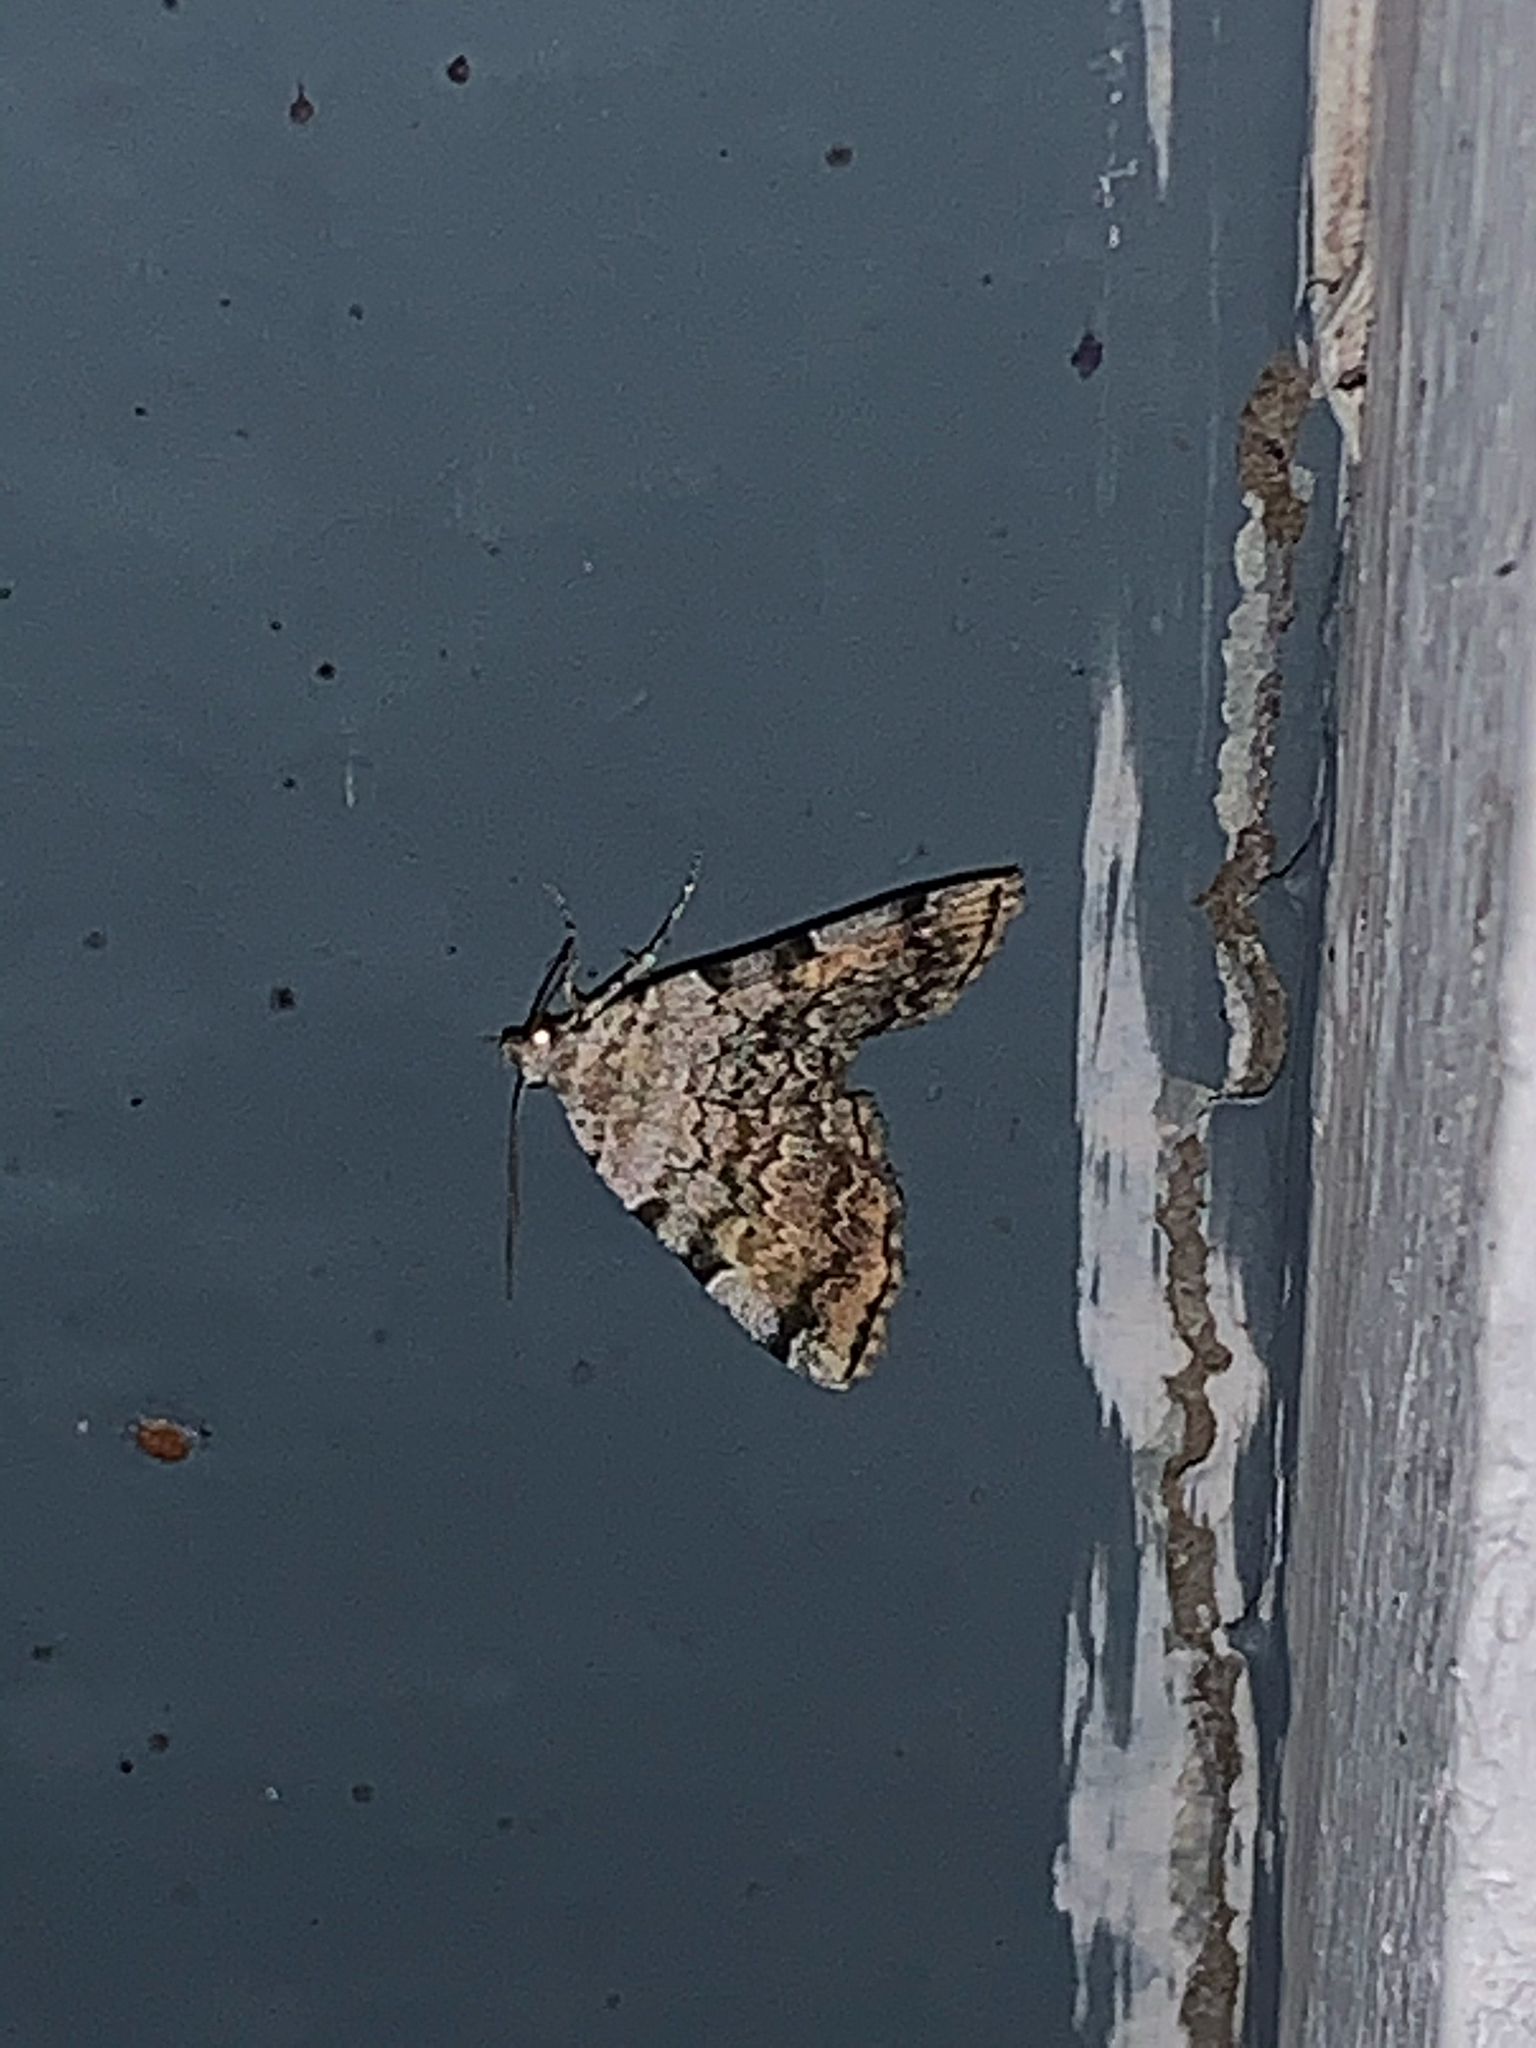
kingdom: Animalia
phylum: Arthropoda
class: Insecta
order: Lepidoptera
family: Erebidae
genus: Idia
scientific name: Idia americalis
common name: American idia moth
